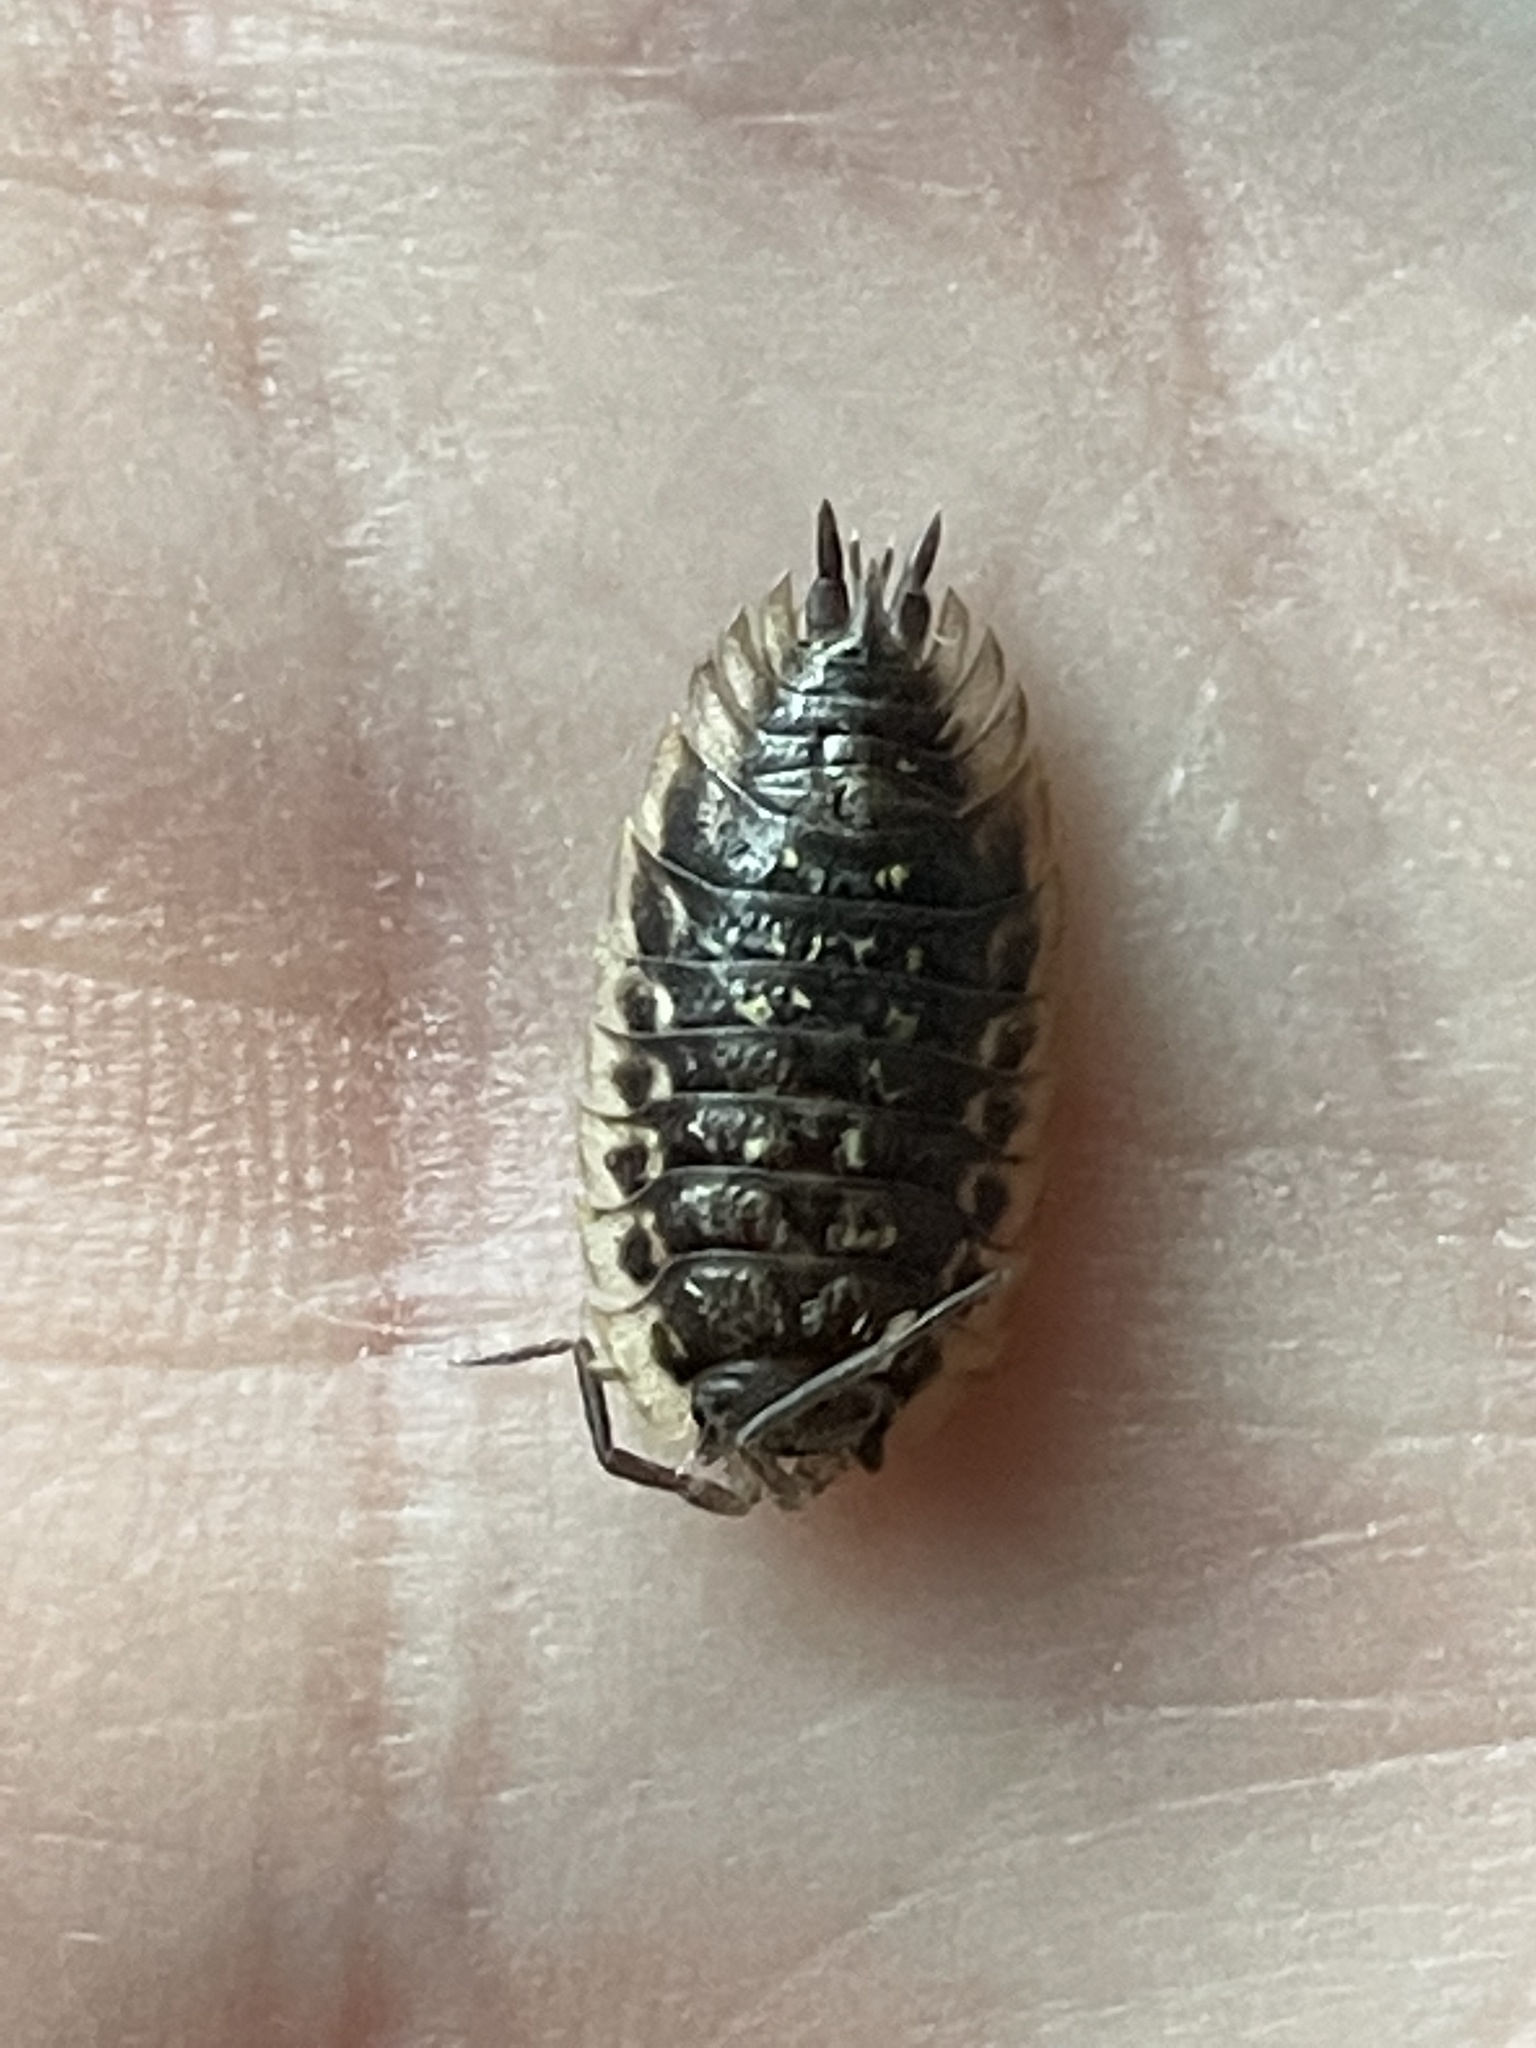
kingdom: Animalia
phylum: Arthropoda
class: Malacostraca
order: Isopoda
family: Oniscidae
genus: Oniscus
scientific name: Oniscus asellus
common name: Common shiny woodlouse
